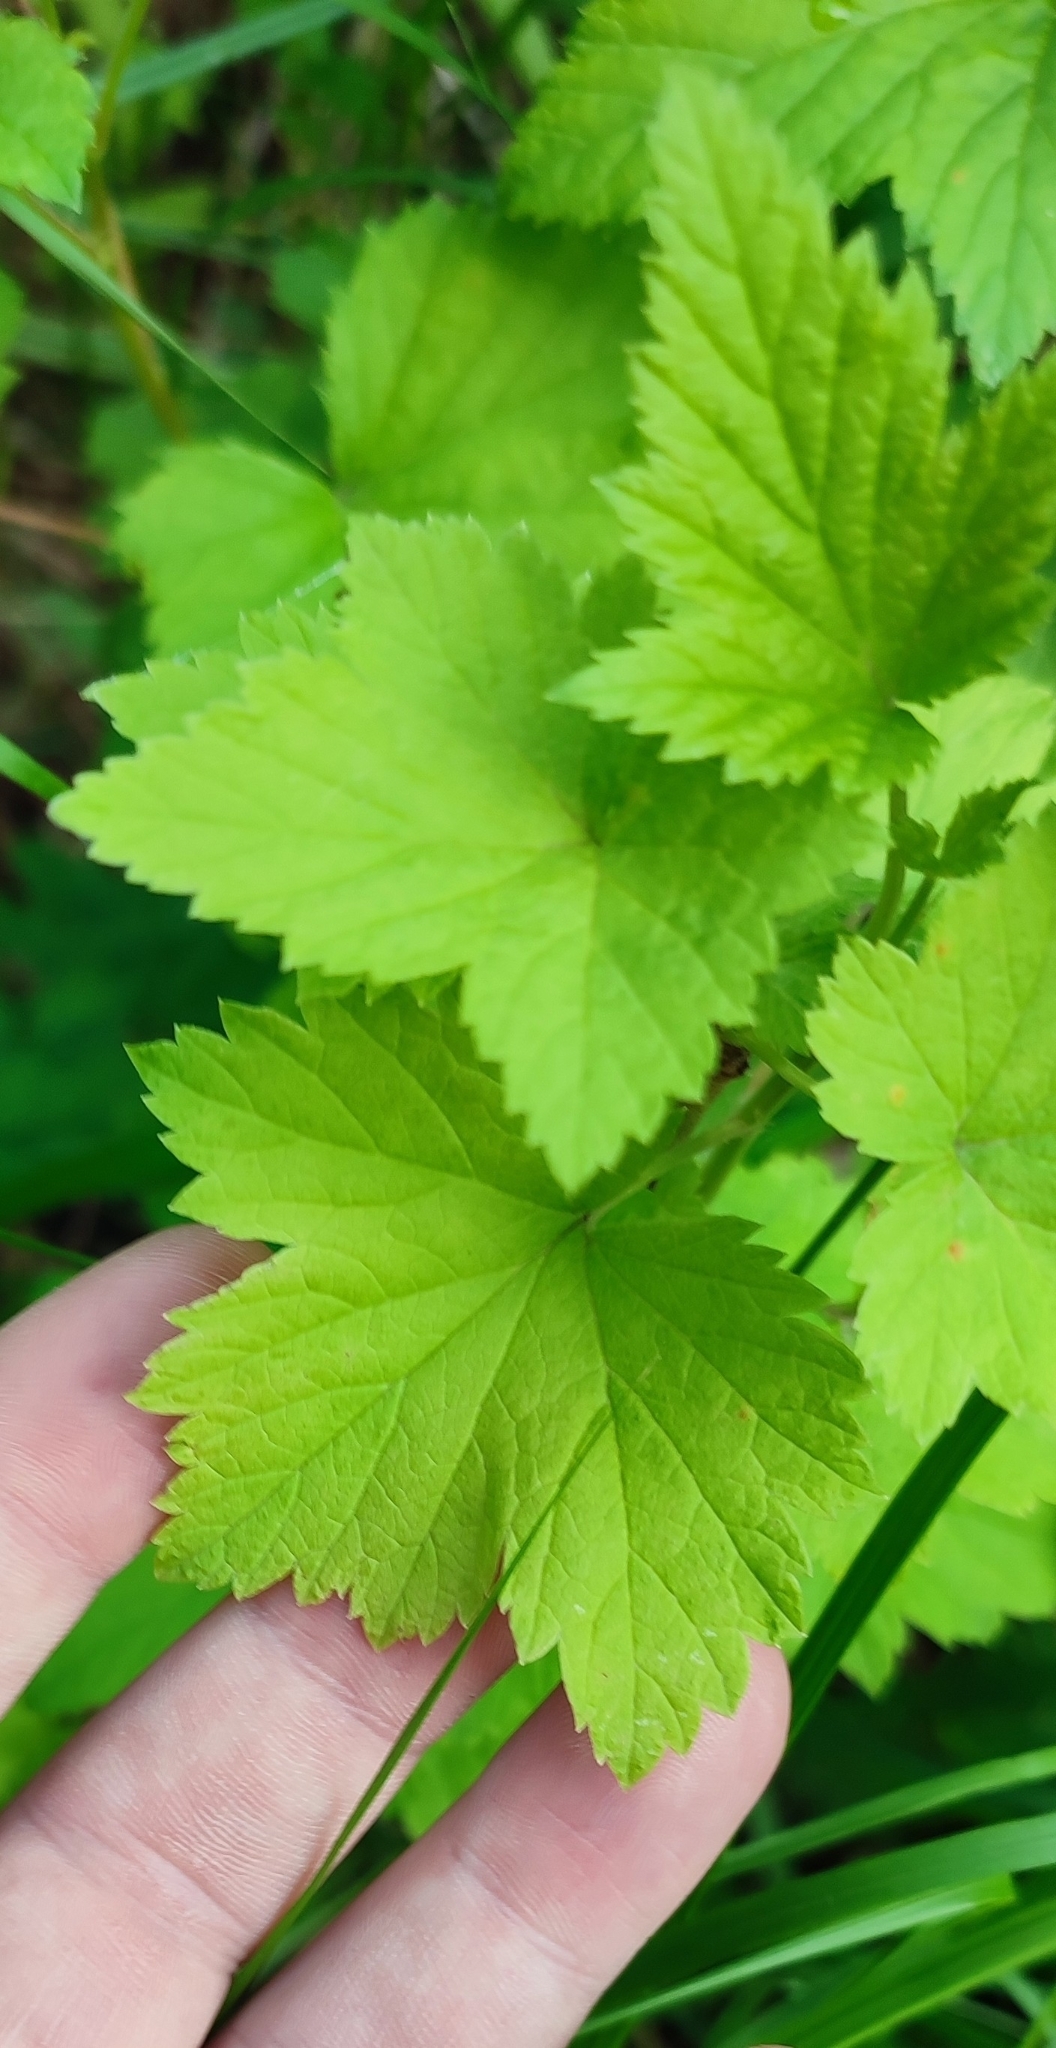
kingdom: Plantae
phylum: Tracheophyta
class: Magnoliopsida
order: Saxifragales
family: Grossulariaceae
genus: Ribes
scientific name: Ribes nigrum
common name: Black currant
